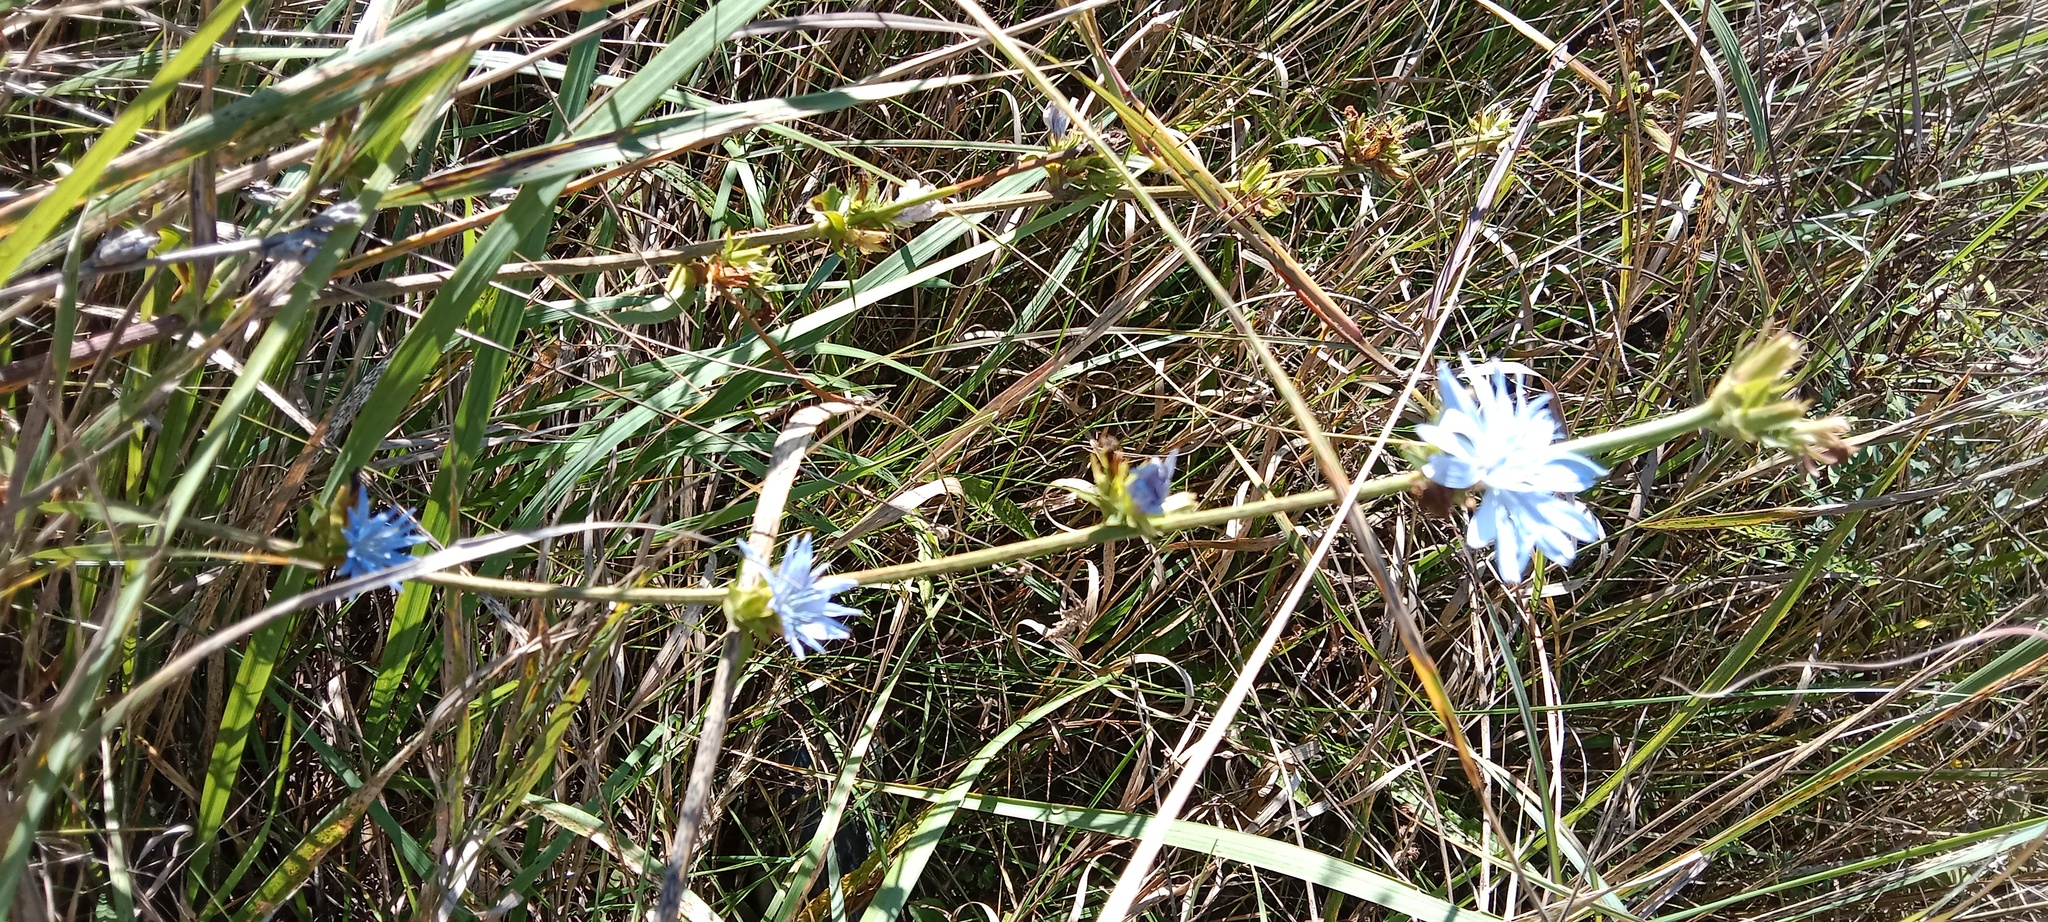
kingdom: Plantae
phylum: Tracheophyta
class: Magnoliopsida
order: Asterales
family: Asteraceae
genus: Cichorium
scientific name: Cichorium intybus
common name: Chicory
